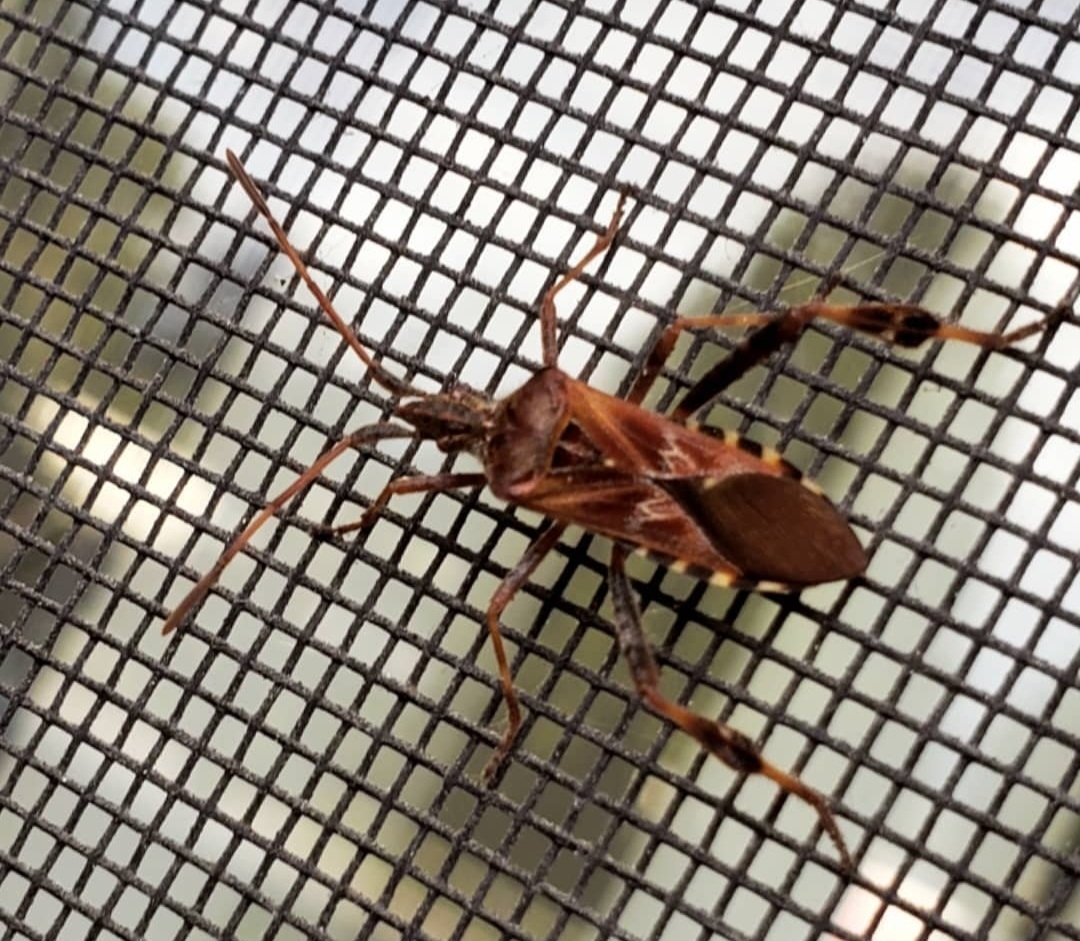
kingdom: Animalia
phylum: Arthropoda
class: Insecta
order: Hemiptera
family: Coreidae
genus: Leptoglossus
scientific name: Leptoglossus occidentalis
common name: Western conifer-seed bug
